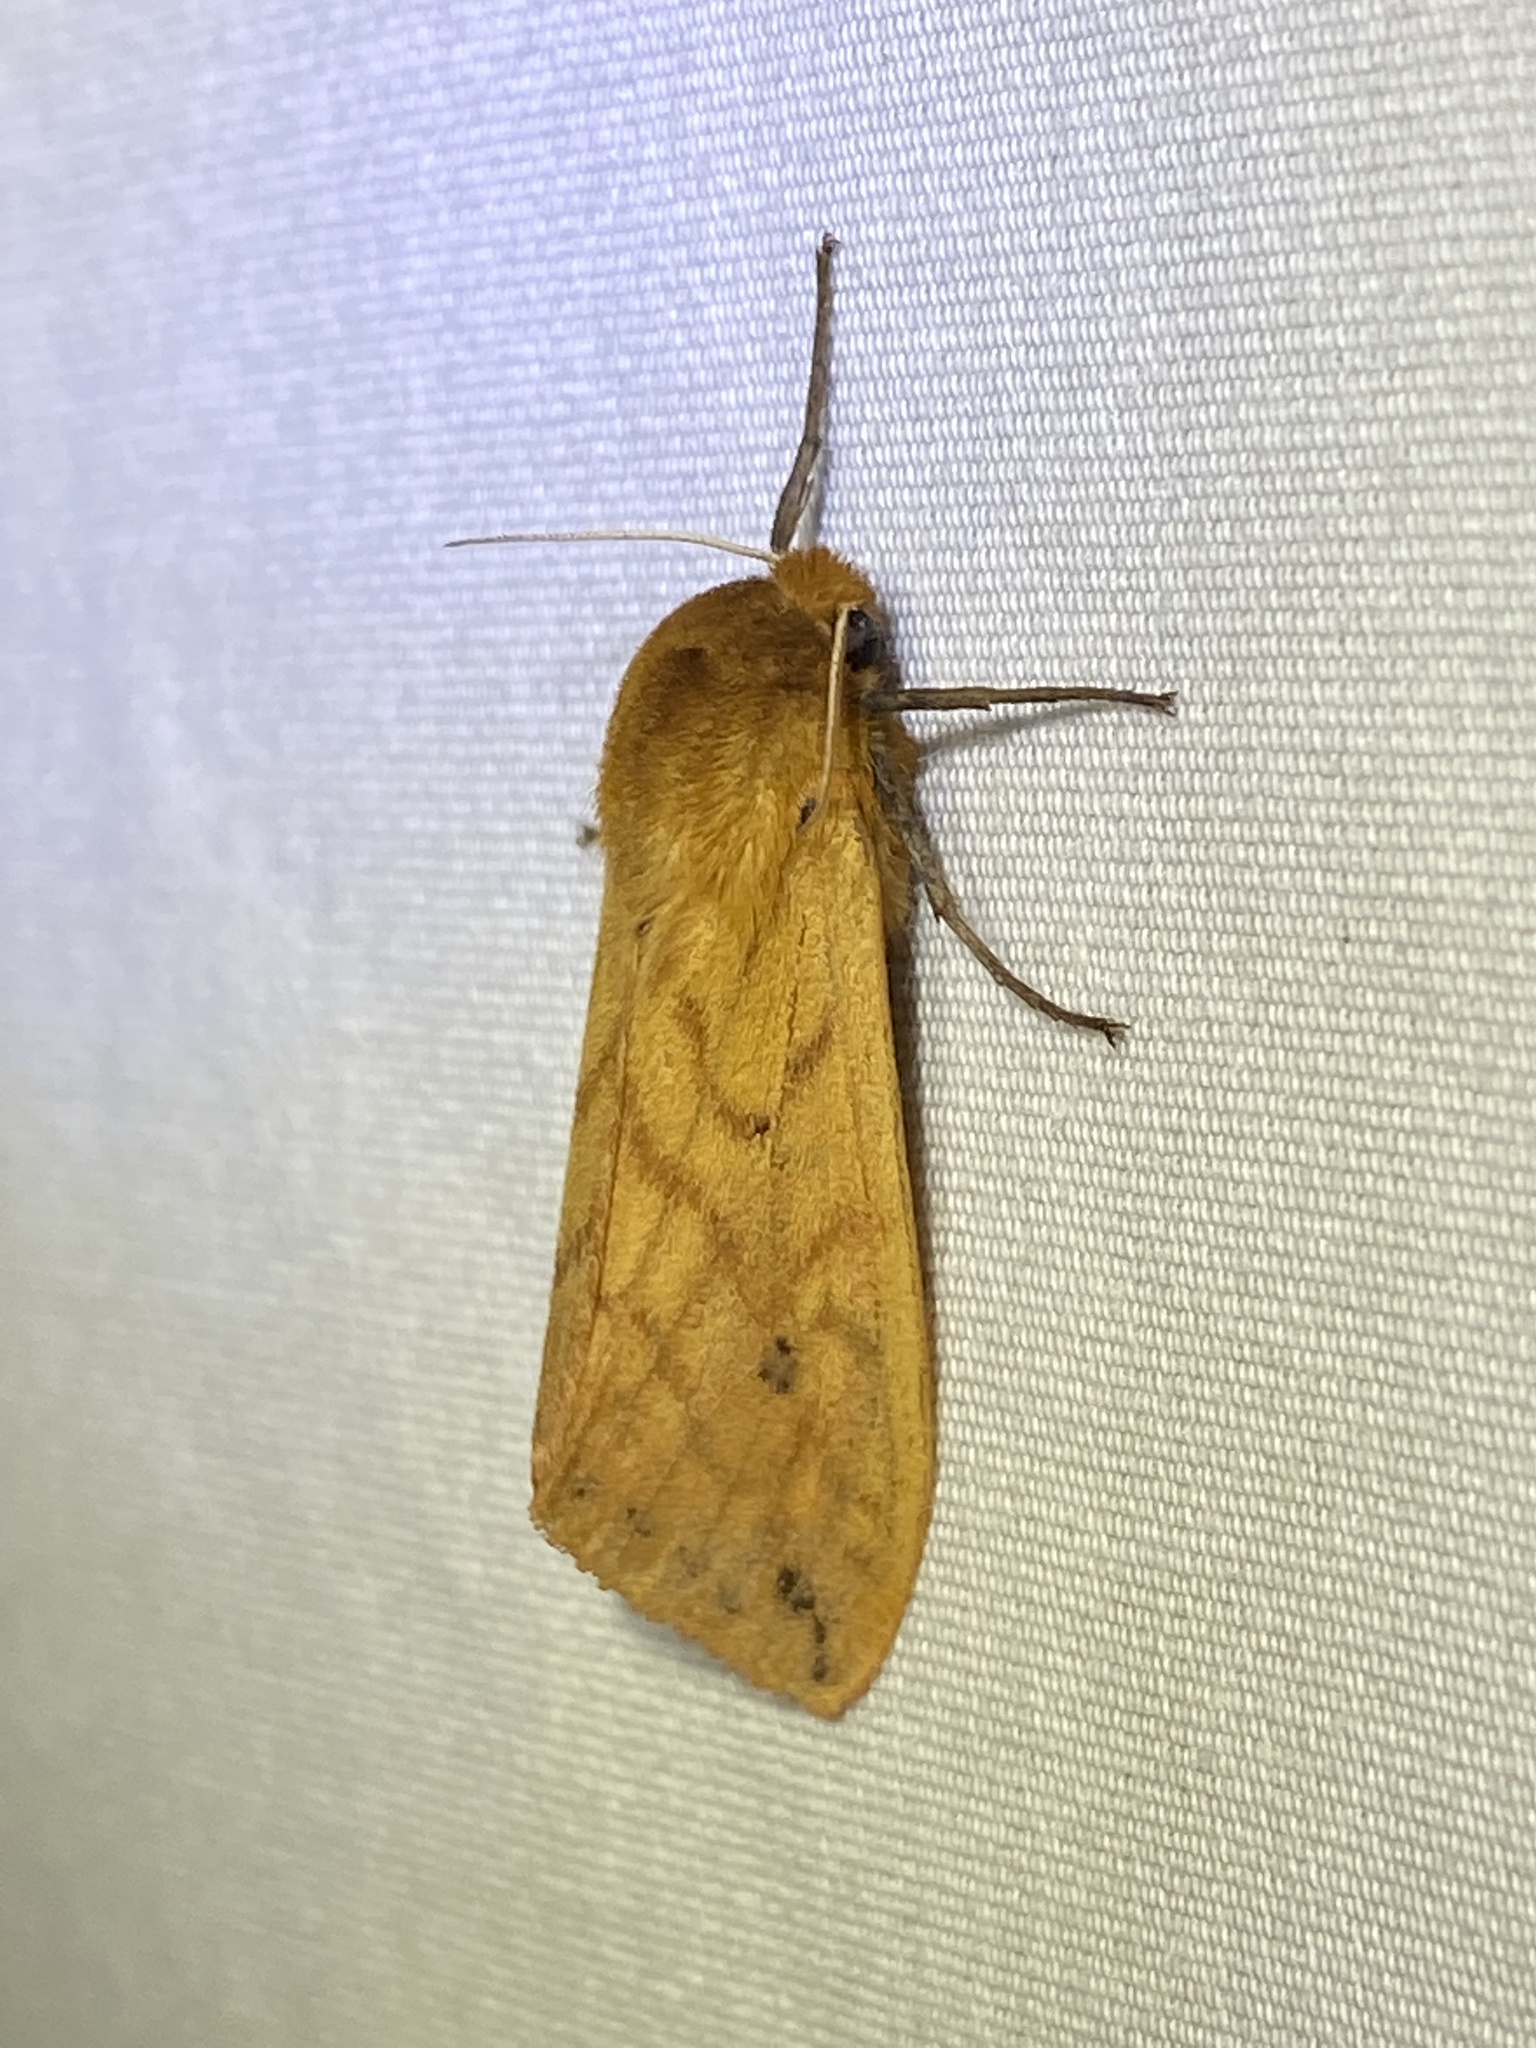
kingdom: Animalia
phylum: Arthropoda
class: Insecta
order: Lepidoptera
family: Erebidae
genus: Pyrrharctia
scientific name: Pyrrharctia isabella
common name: Isabella tiger moth
